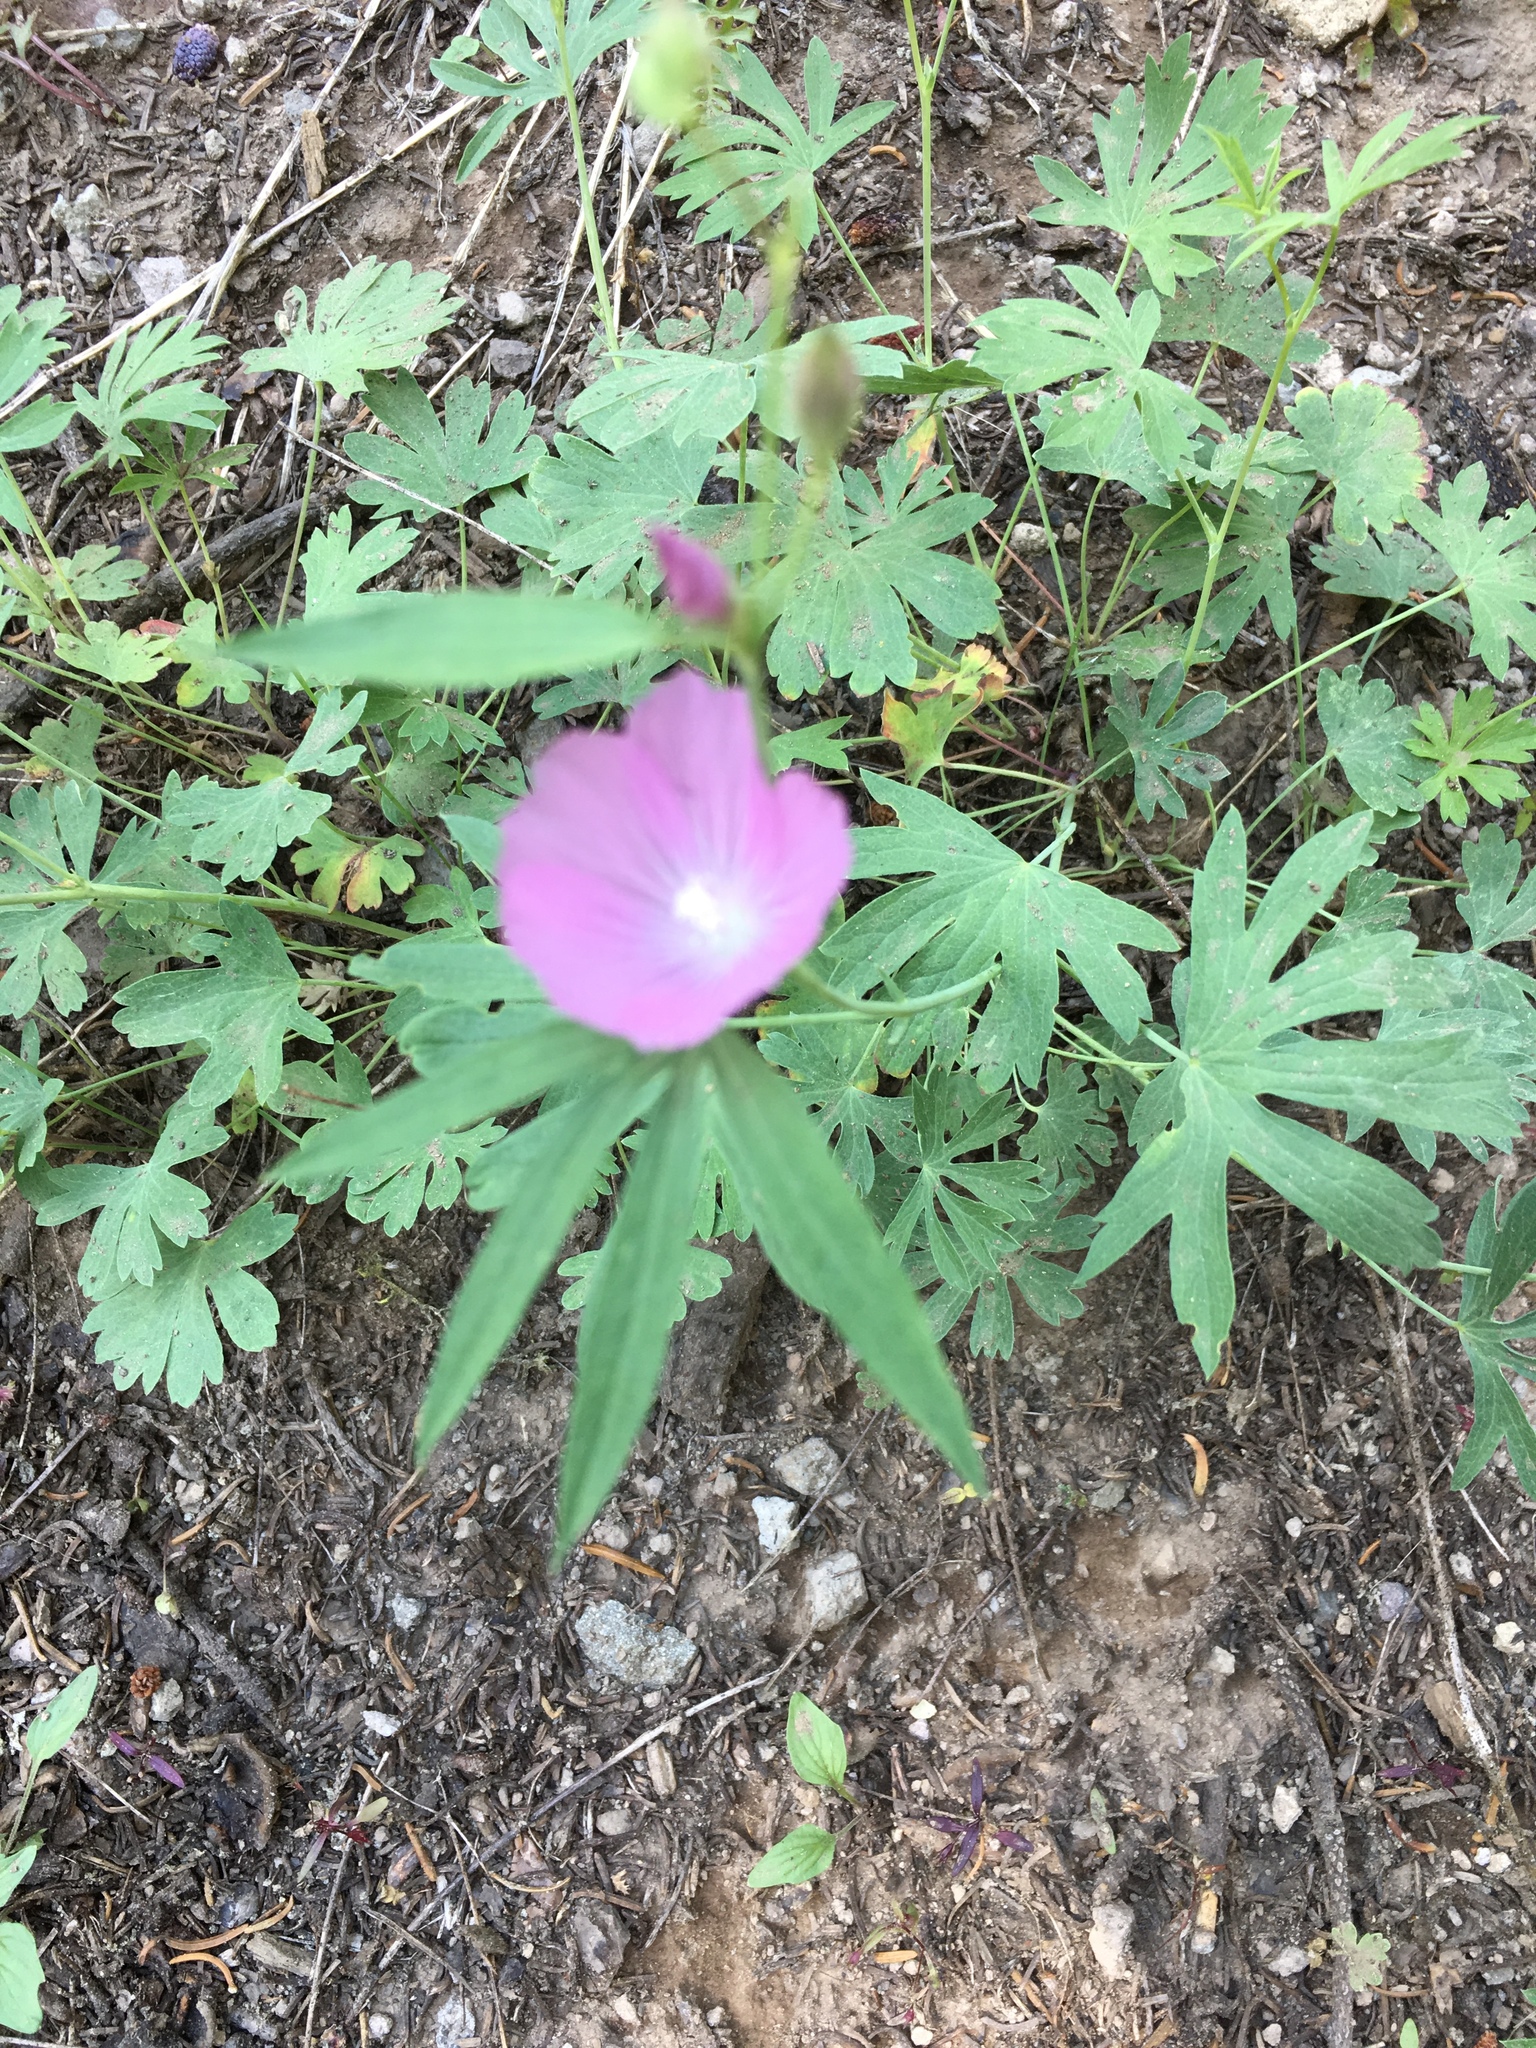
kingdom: Plantae
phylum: Tracheophyta
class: Magnoliopsida
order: Malvales
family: Malvaceae
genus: Sidalcea
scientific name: Sidalcea glaucescens
